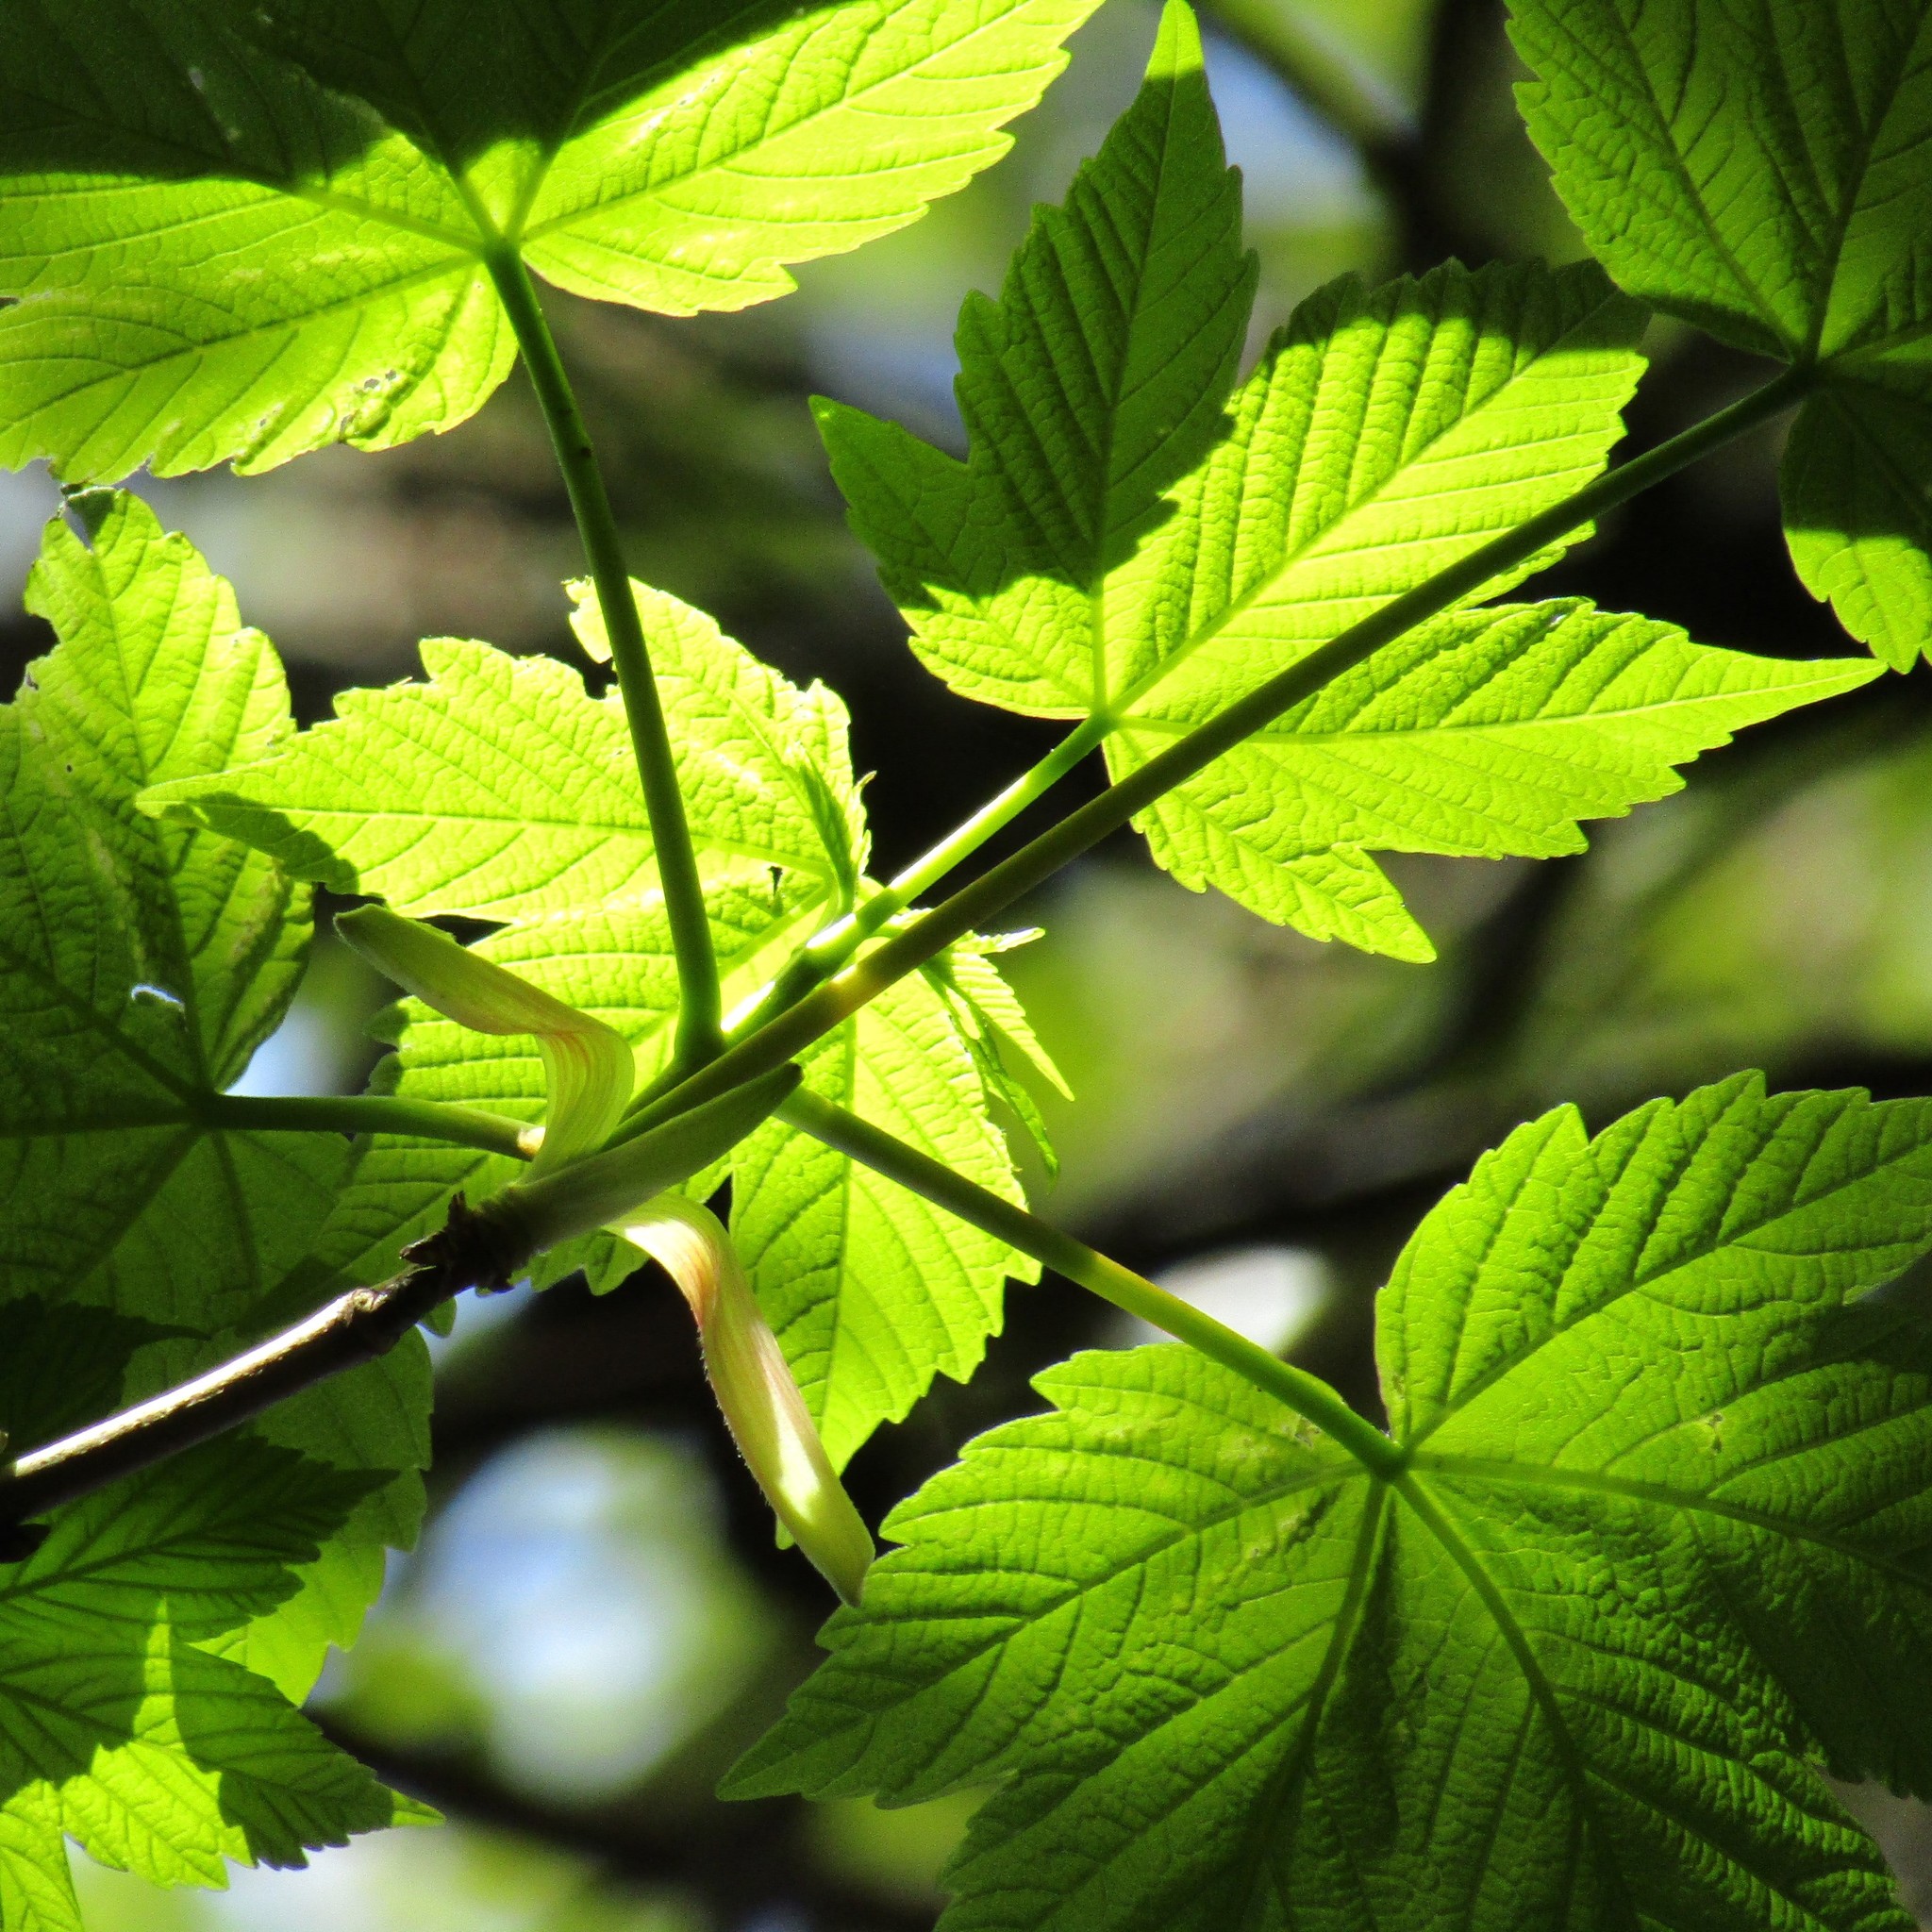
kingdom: Plantae
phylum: Tracheophyta
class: Magnoliopsida
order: Sapindales
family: Sapindaceae
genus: Acer
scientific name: Acer pseudoplatanus
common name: Sycamore
